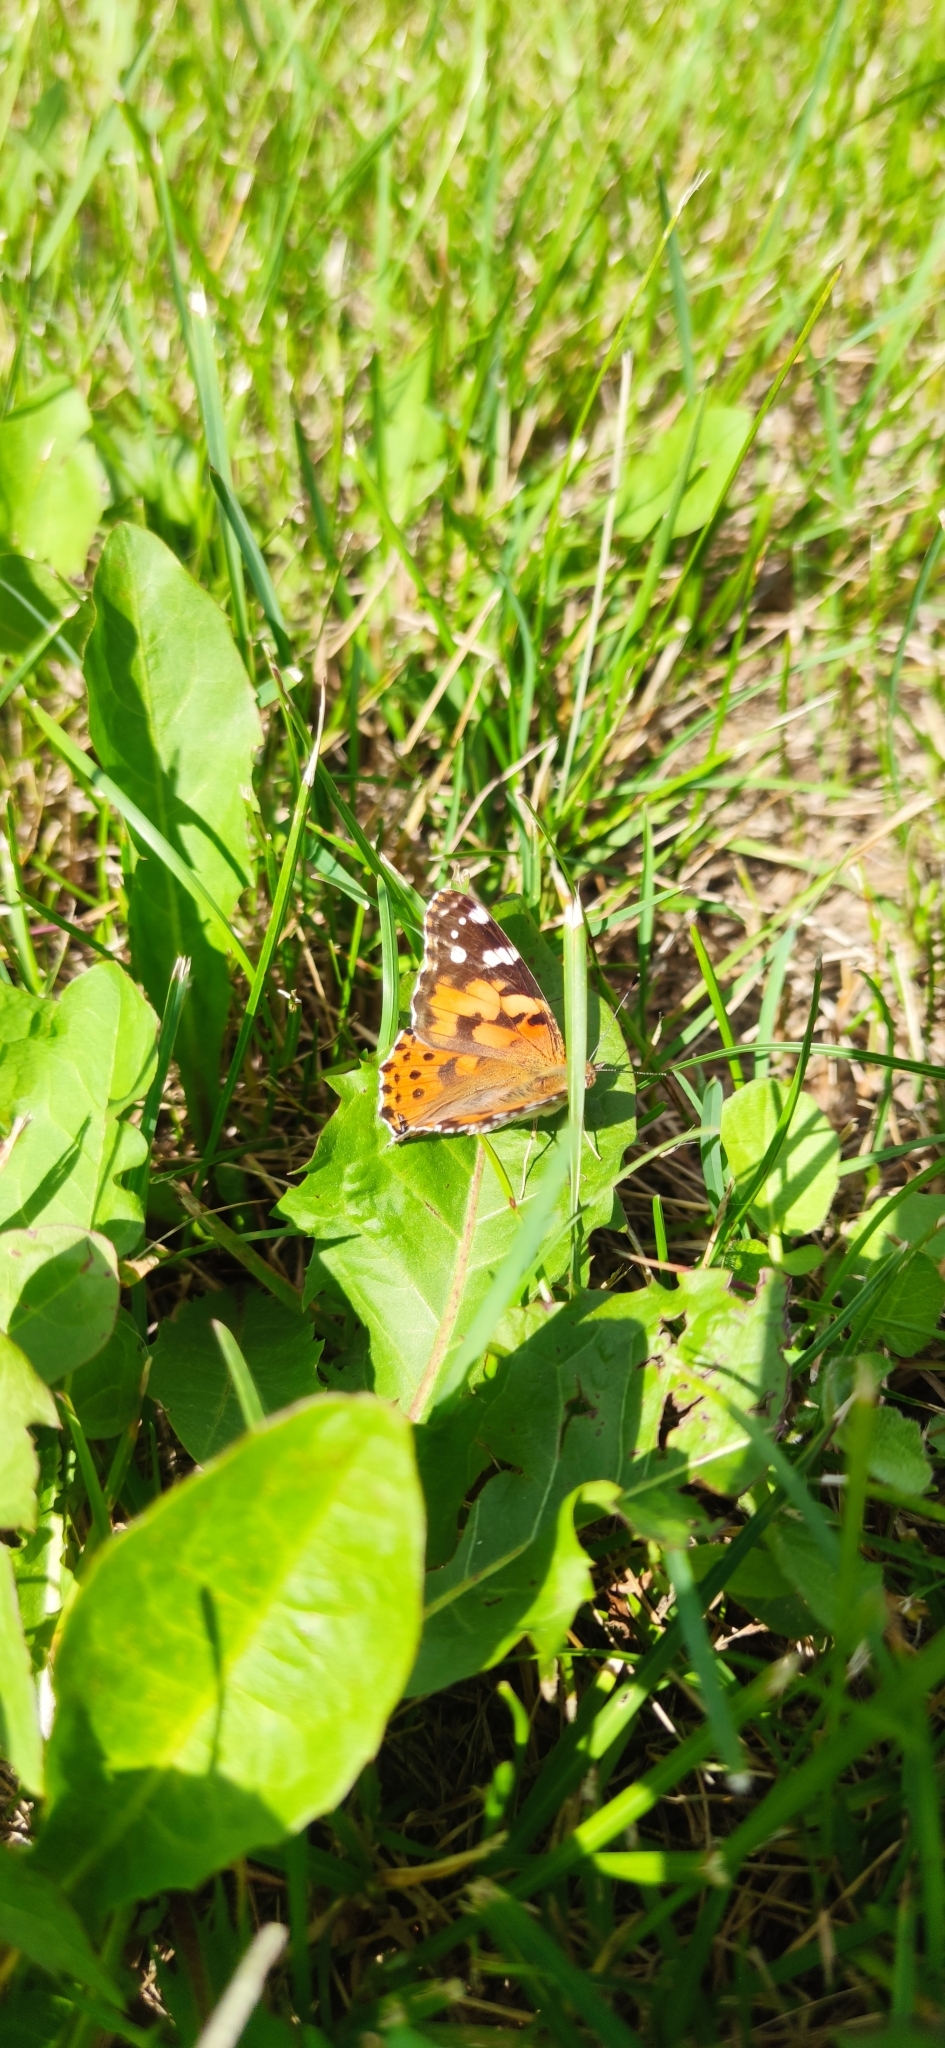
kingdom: Animalia
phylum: Arthropoda
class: Insecta
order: Lepidoptera
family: Nymphalidae
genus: Vanessa
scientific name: Vanessa cardui
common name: Painted lady
